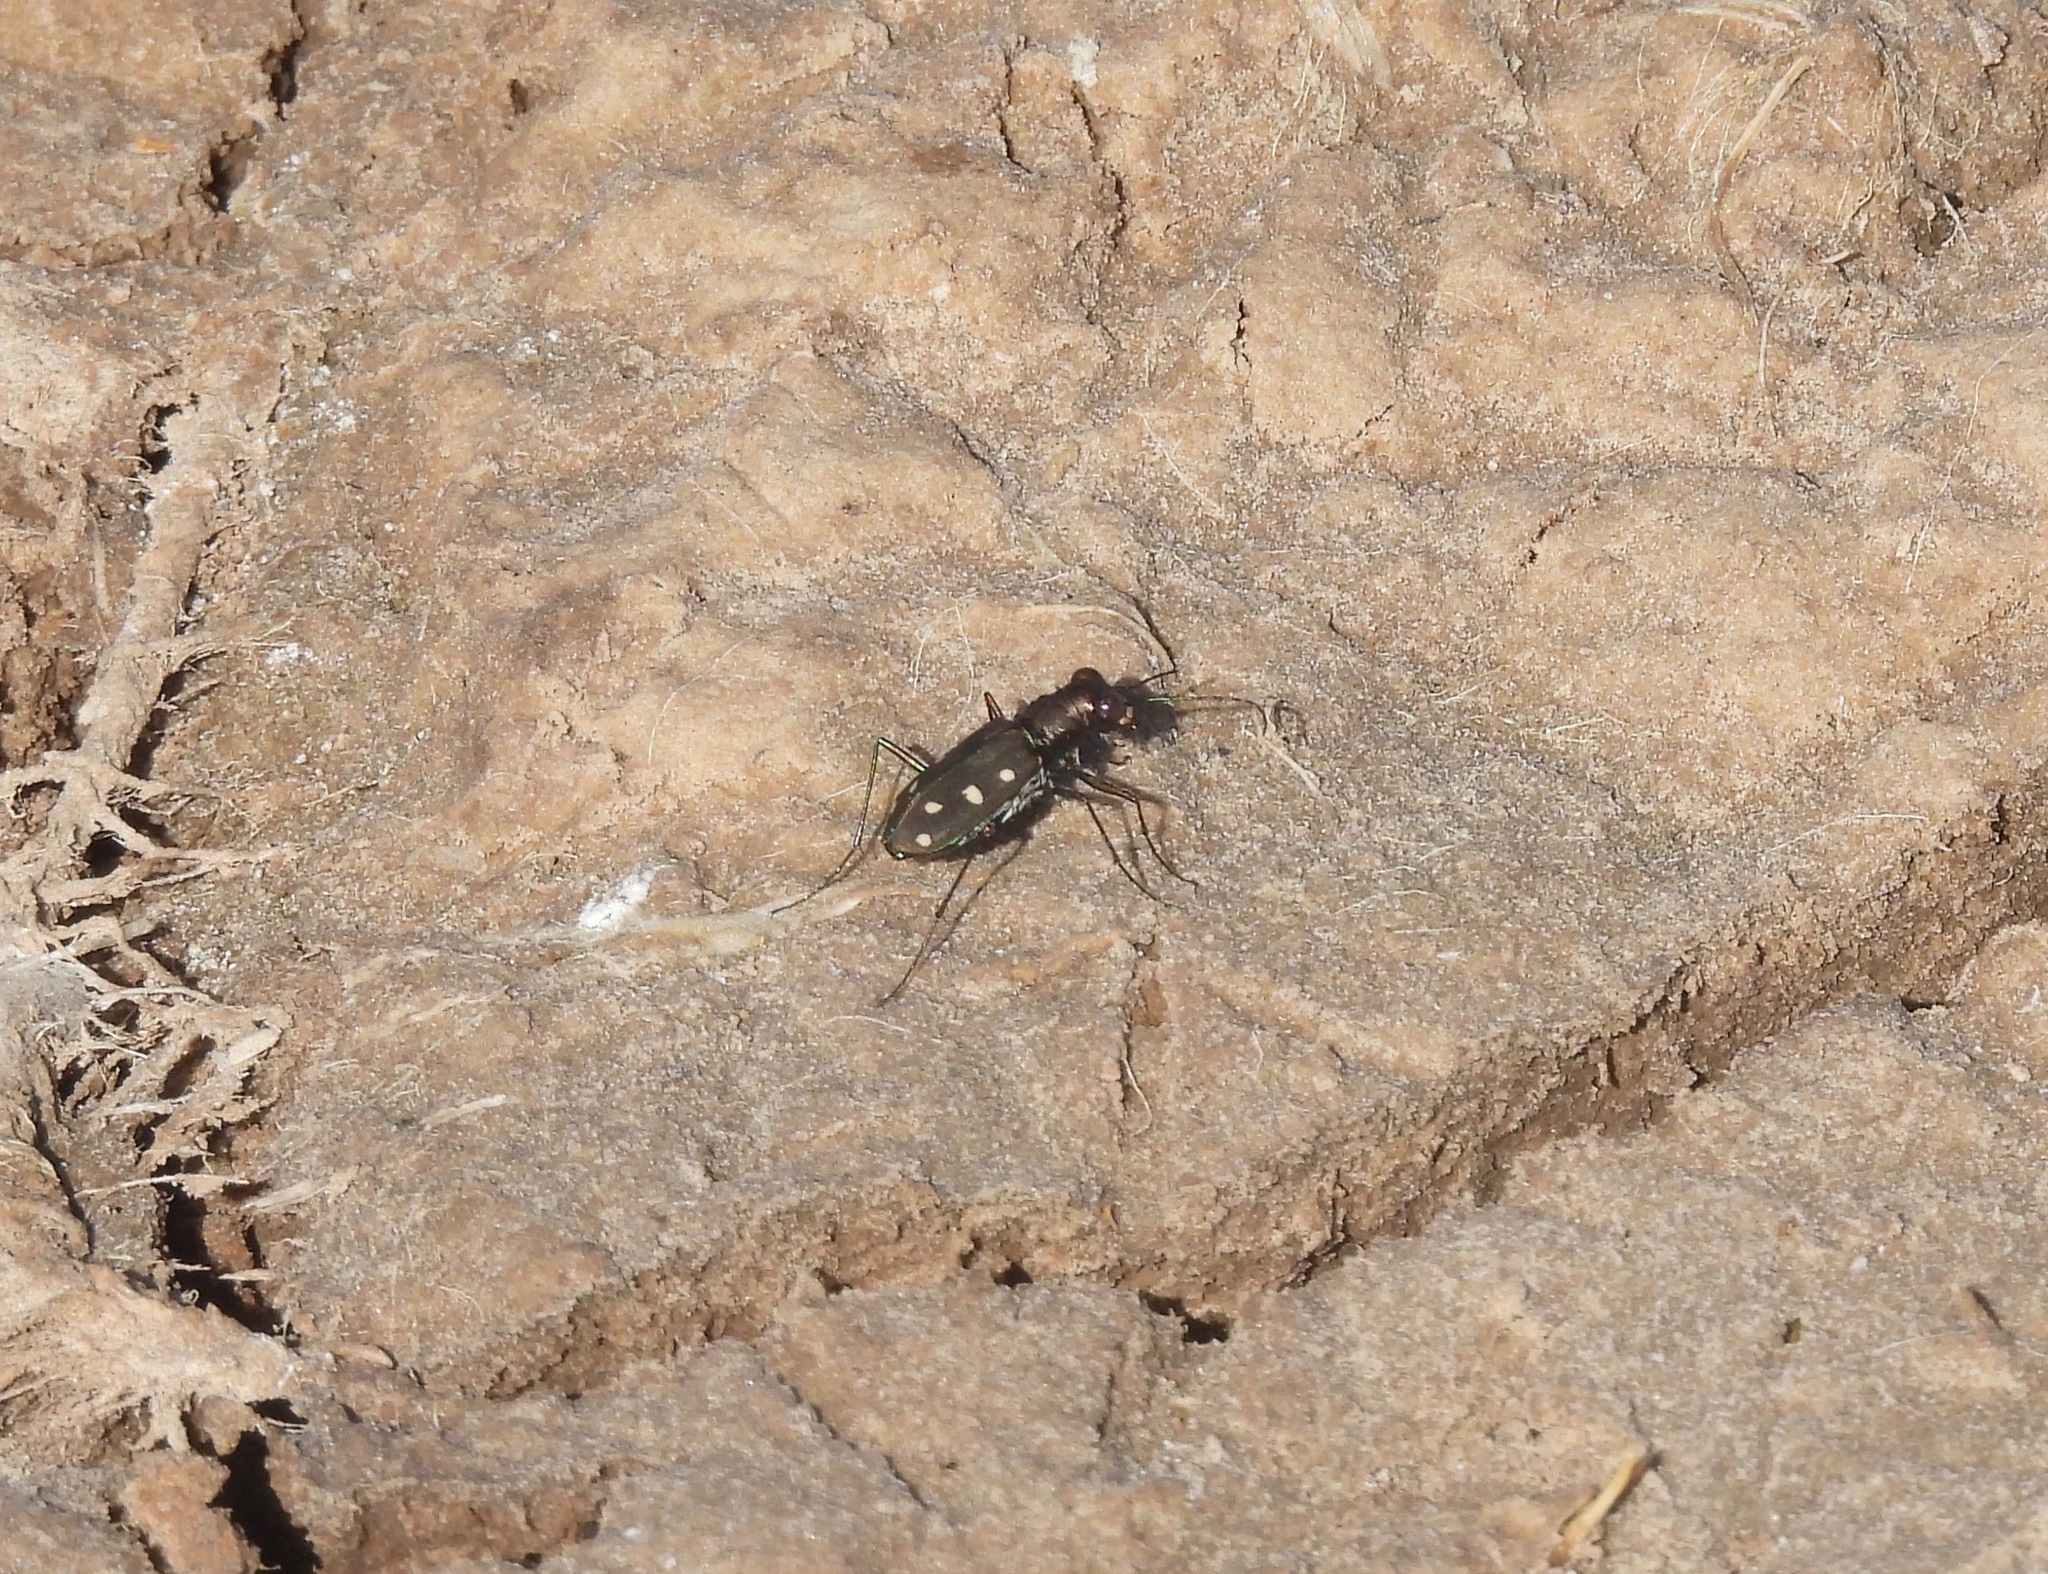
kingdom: Animalia
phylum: Arthropoda
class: Insecta
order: Coleoptera
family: Carabidae
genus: Cicindela
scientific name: Cicindela ocellata
